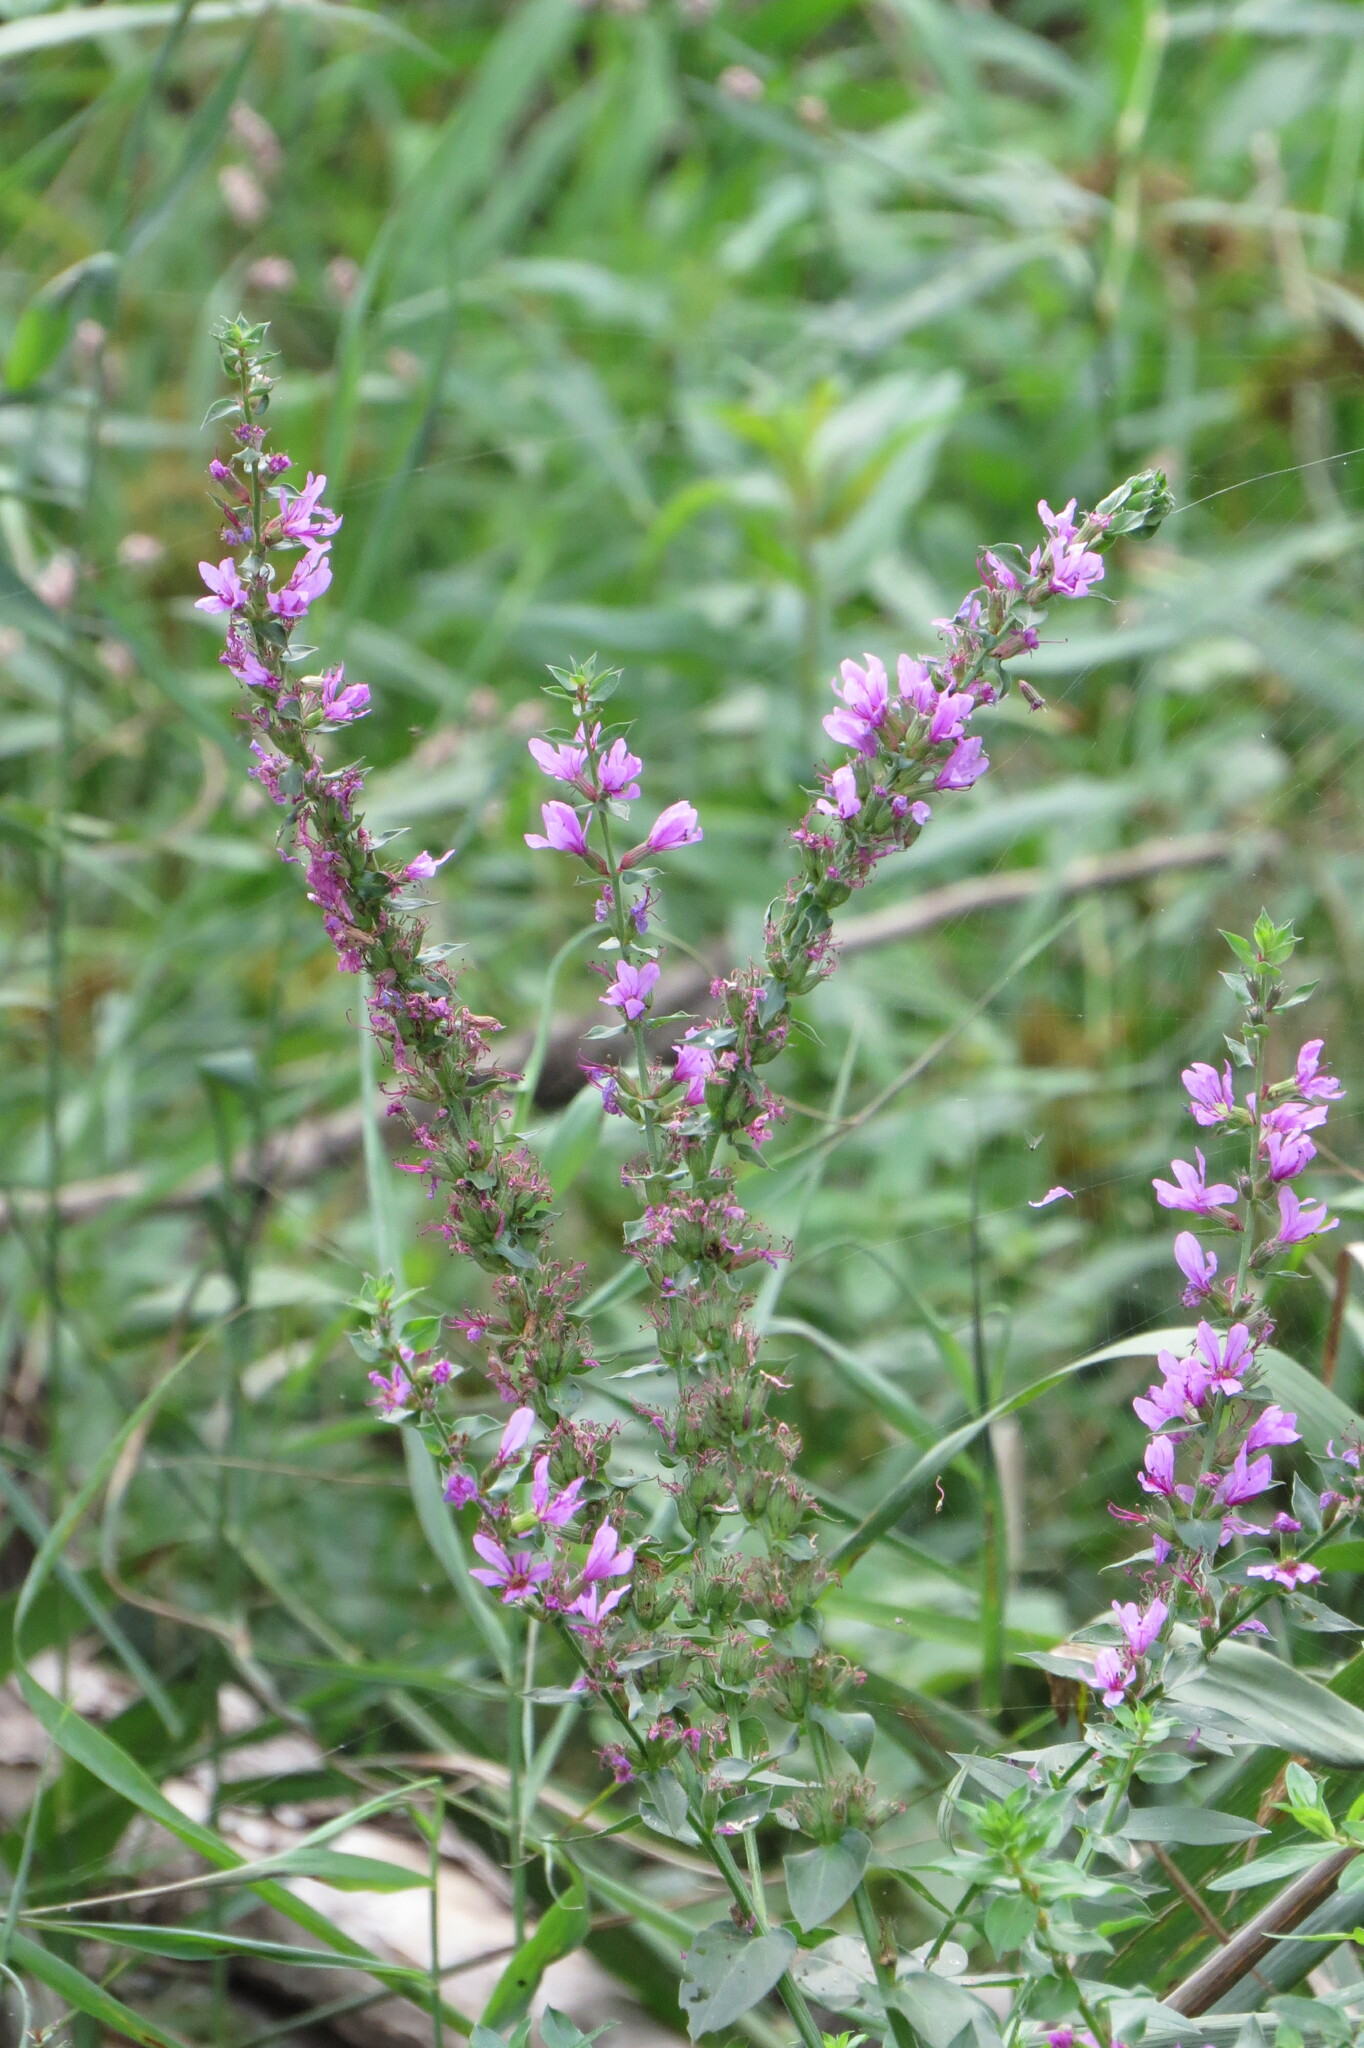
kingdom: Plantae
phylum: Tracheophyta
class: Magnoliopsida
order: Myrtales
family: Lythraceae
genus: Lythrum
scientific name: Lythrum salicaria
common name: Purple loosestrife
